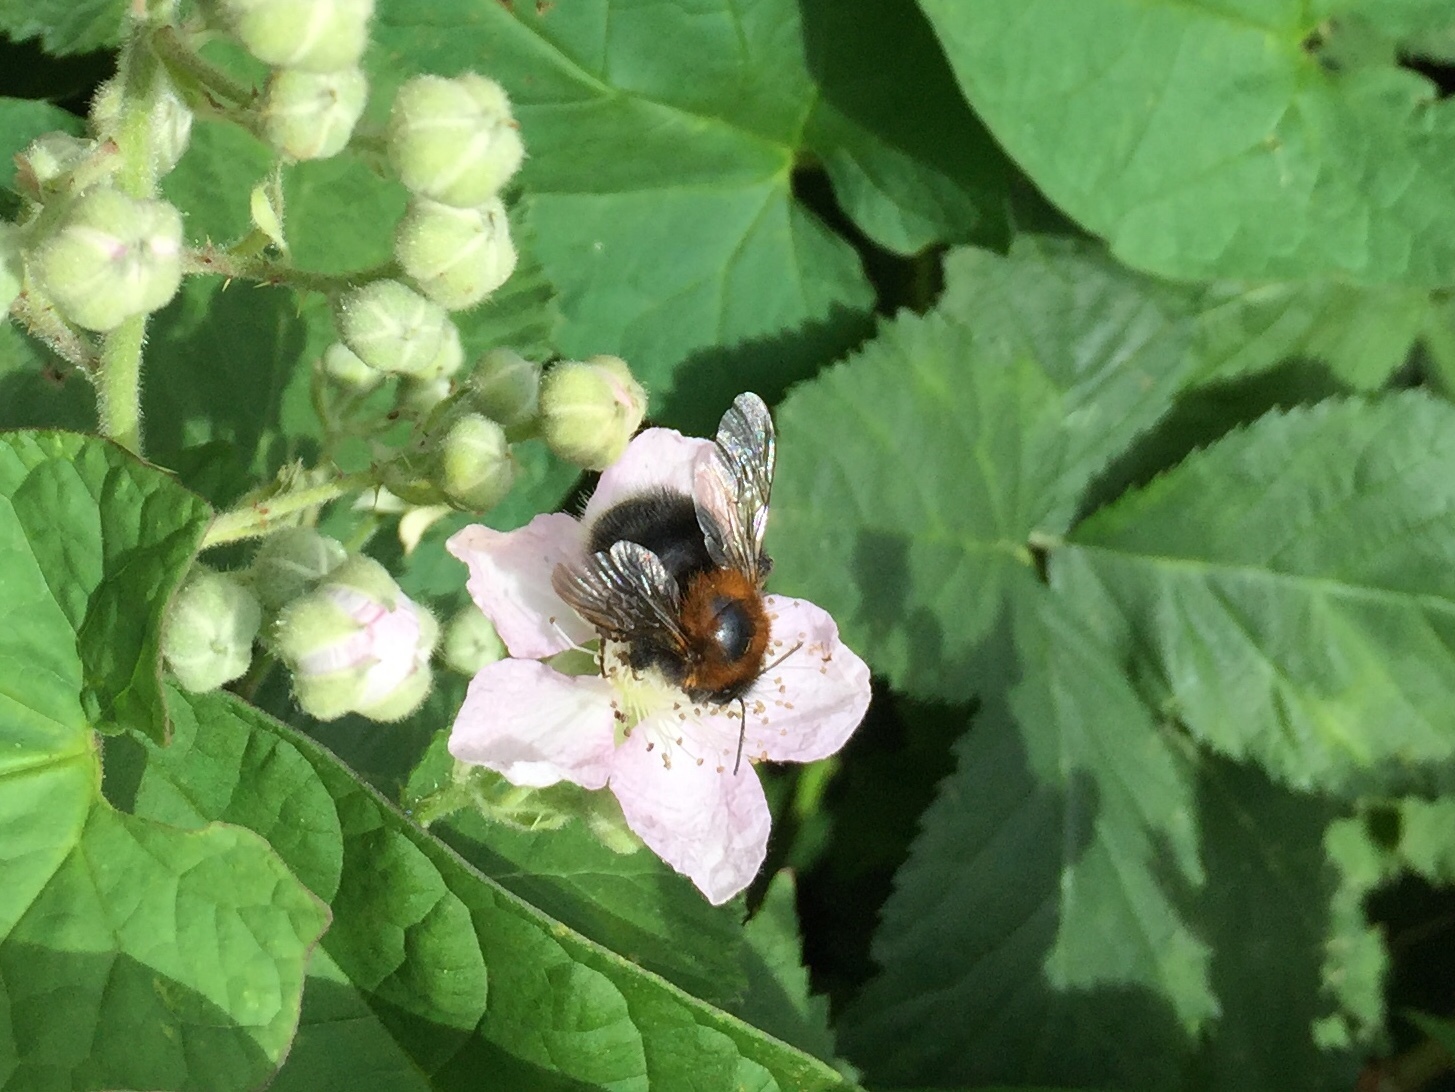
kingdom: Animalia
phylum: Arthropoda
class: Insecta
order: Hymenoptera
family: Apidae
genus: Bombus
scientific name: Bombus hypnorum
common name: New garden bumblebee
